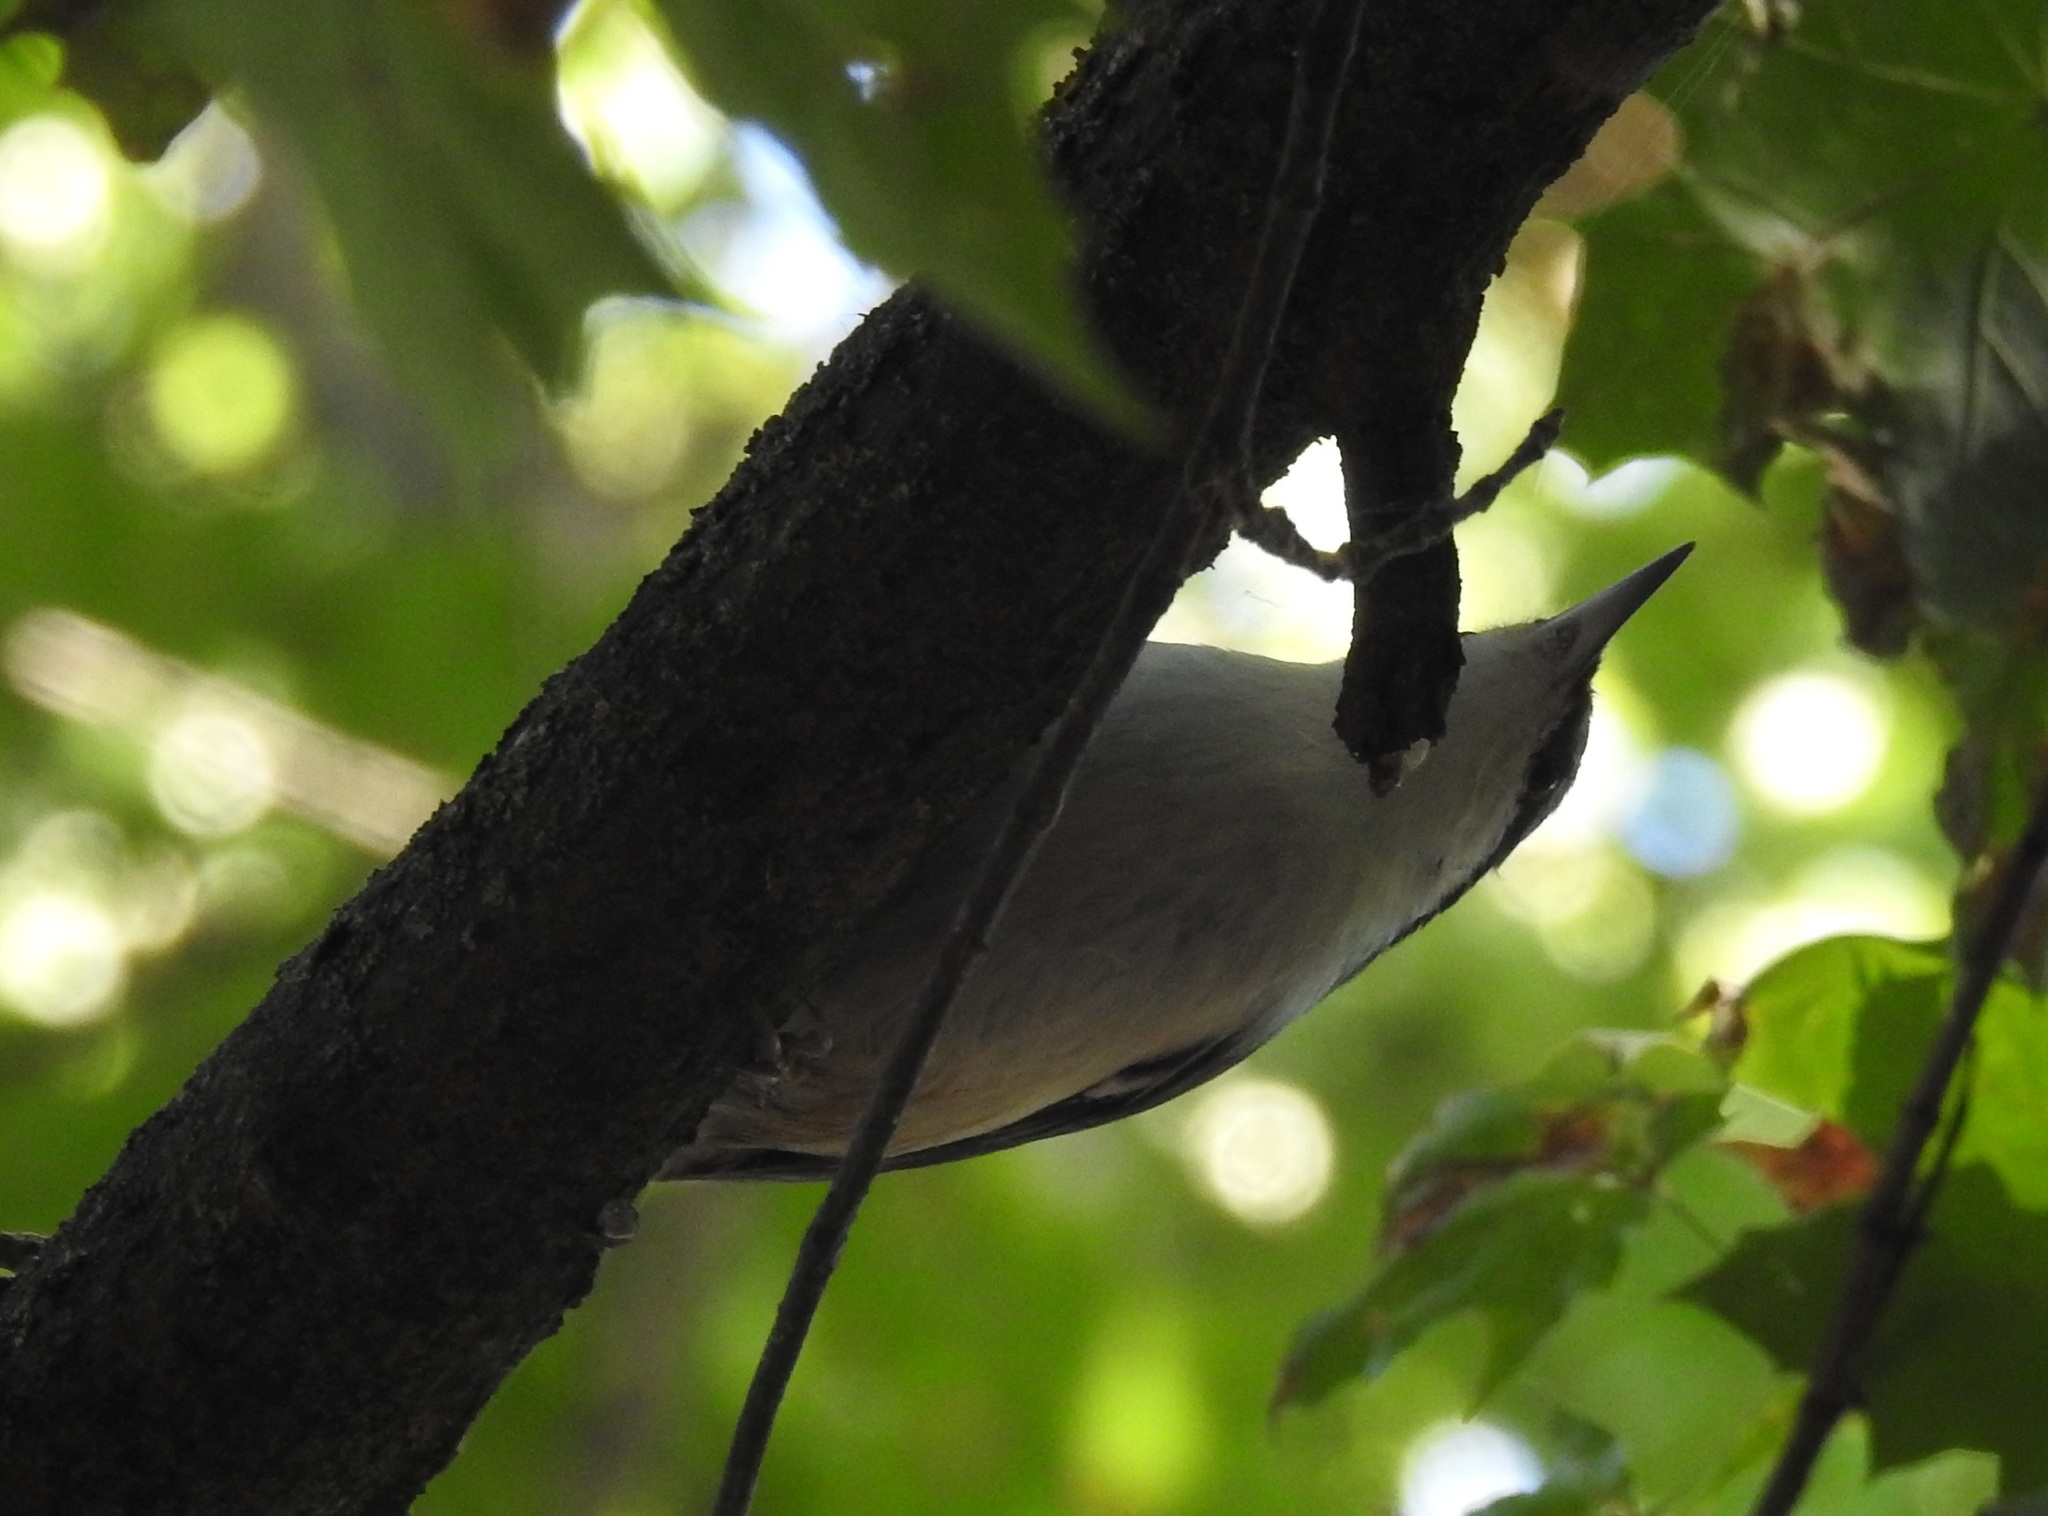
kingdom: Animalia
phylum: Chordata
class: Aves
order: Passeriformes
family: Sittidae
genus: Sitta
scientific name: Sitta europaea
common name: Eurasian nuthatch
